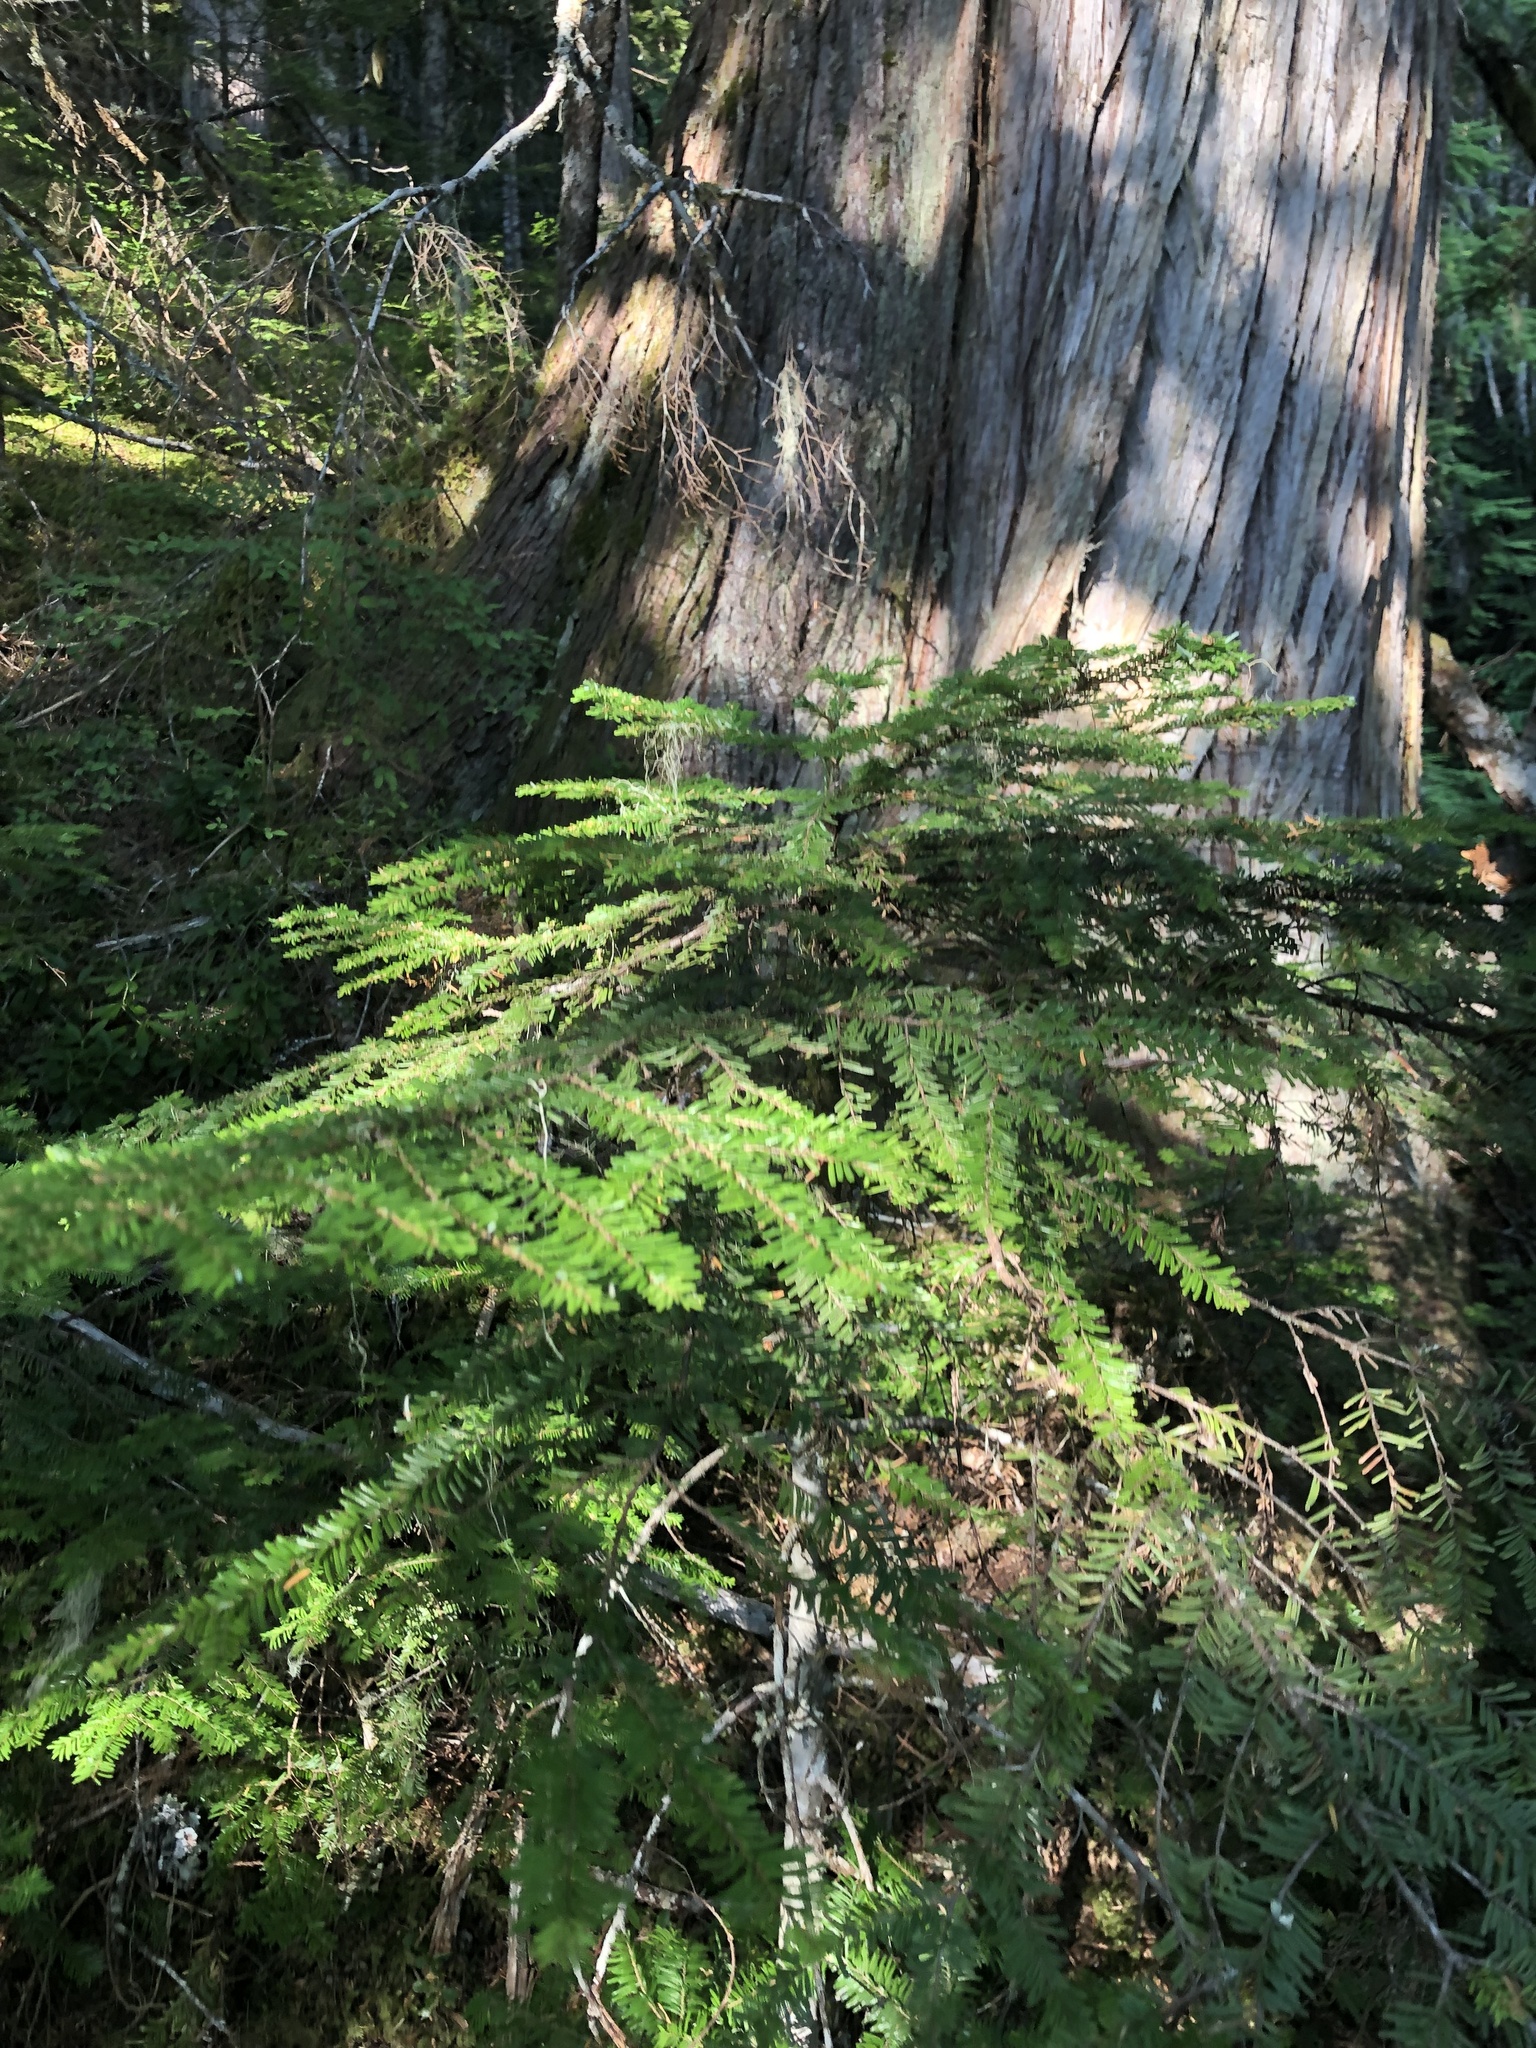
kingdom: Plantae
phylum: Tracheophyta
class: Pinopsida
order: Pinales
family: Pinaceae
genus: Abies
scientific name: Abies amabilis
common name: Pacific silver fir
